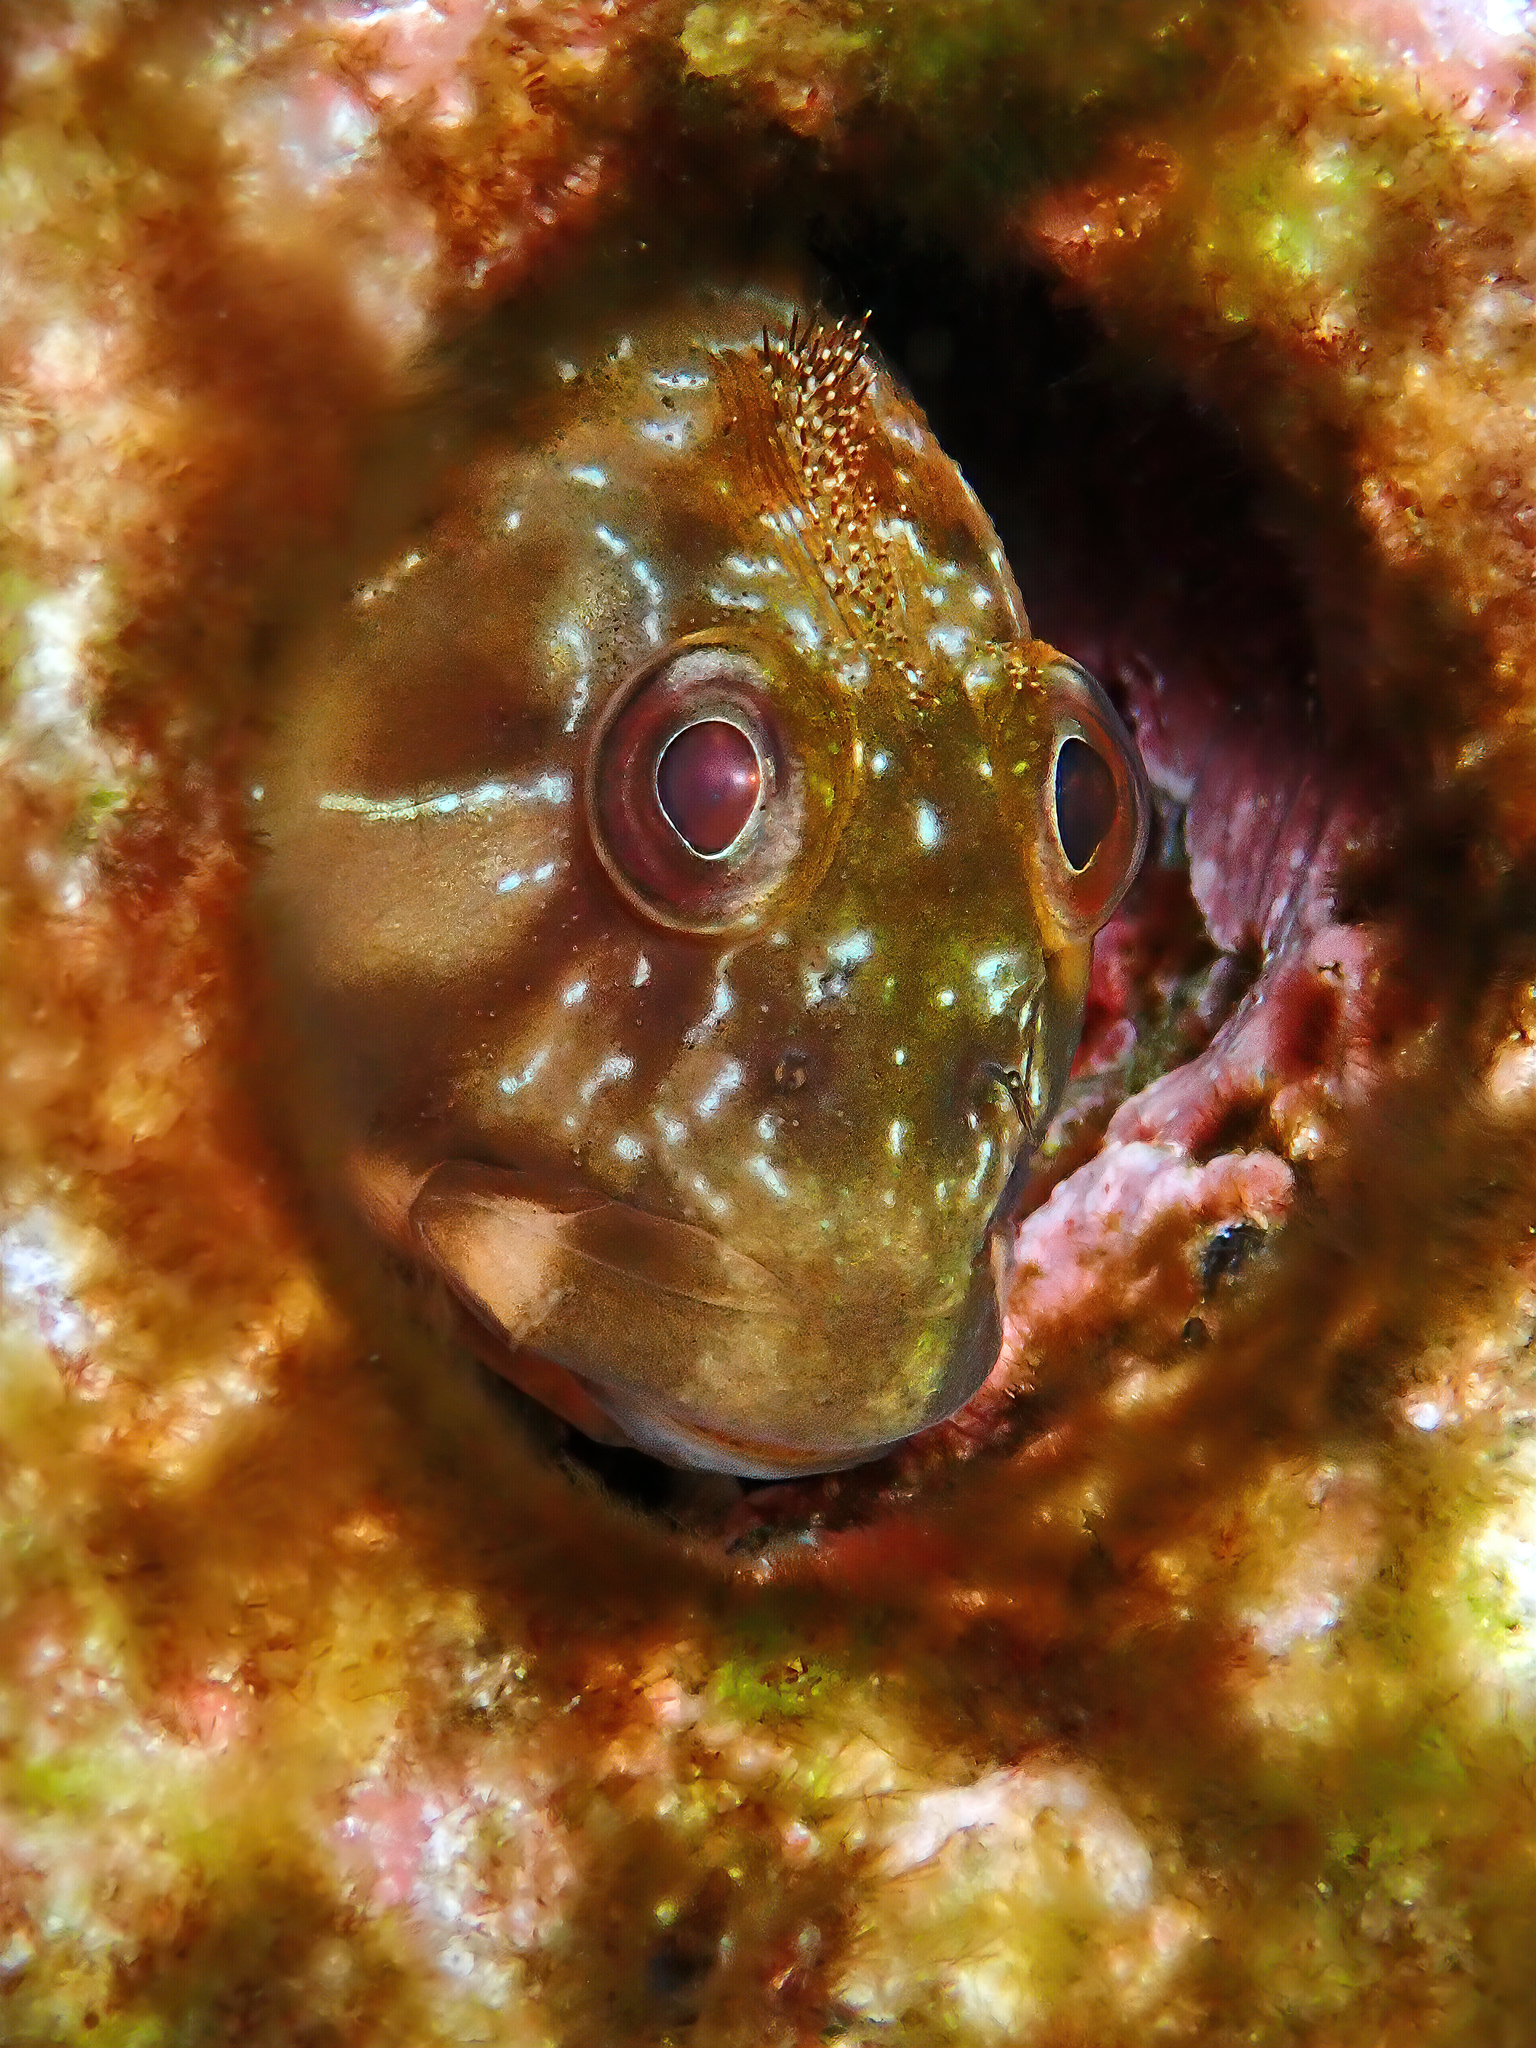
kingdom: Animalia
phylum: Chordata
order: Perciformes
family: Blenniidae
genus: Scartella
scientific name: Scartella cristata
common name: Molly miller
